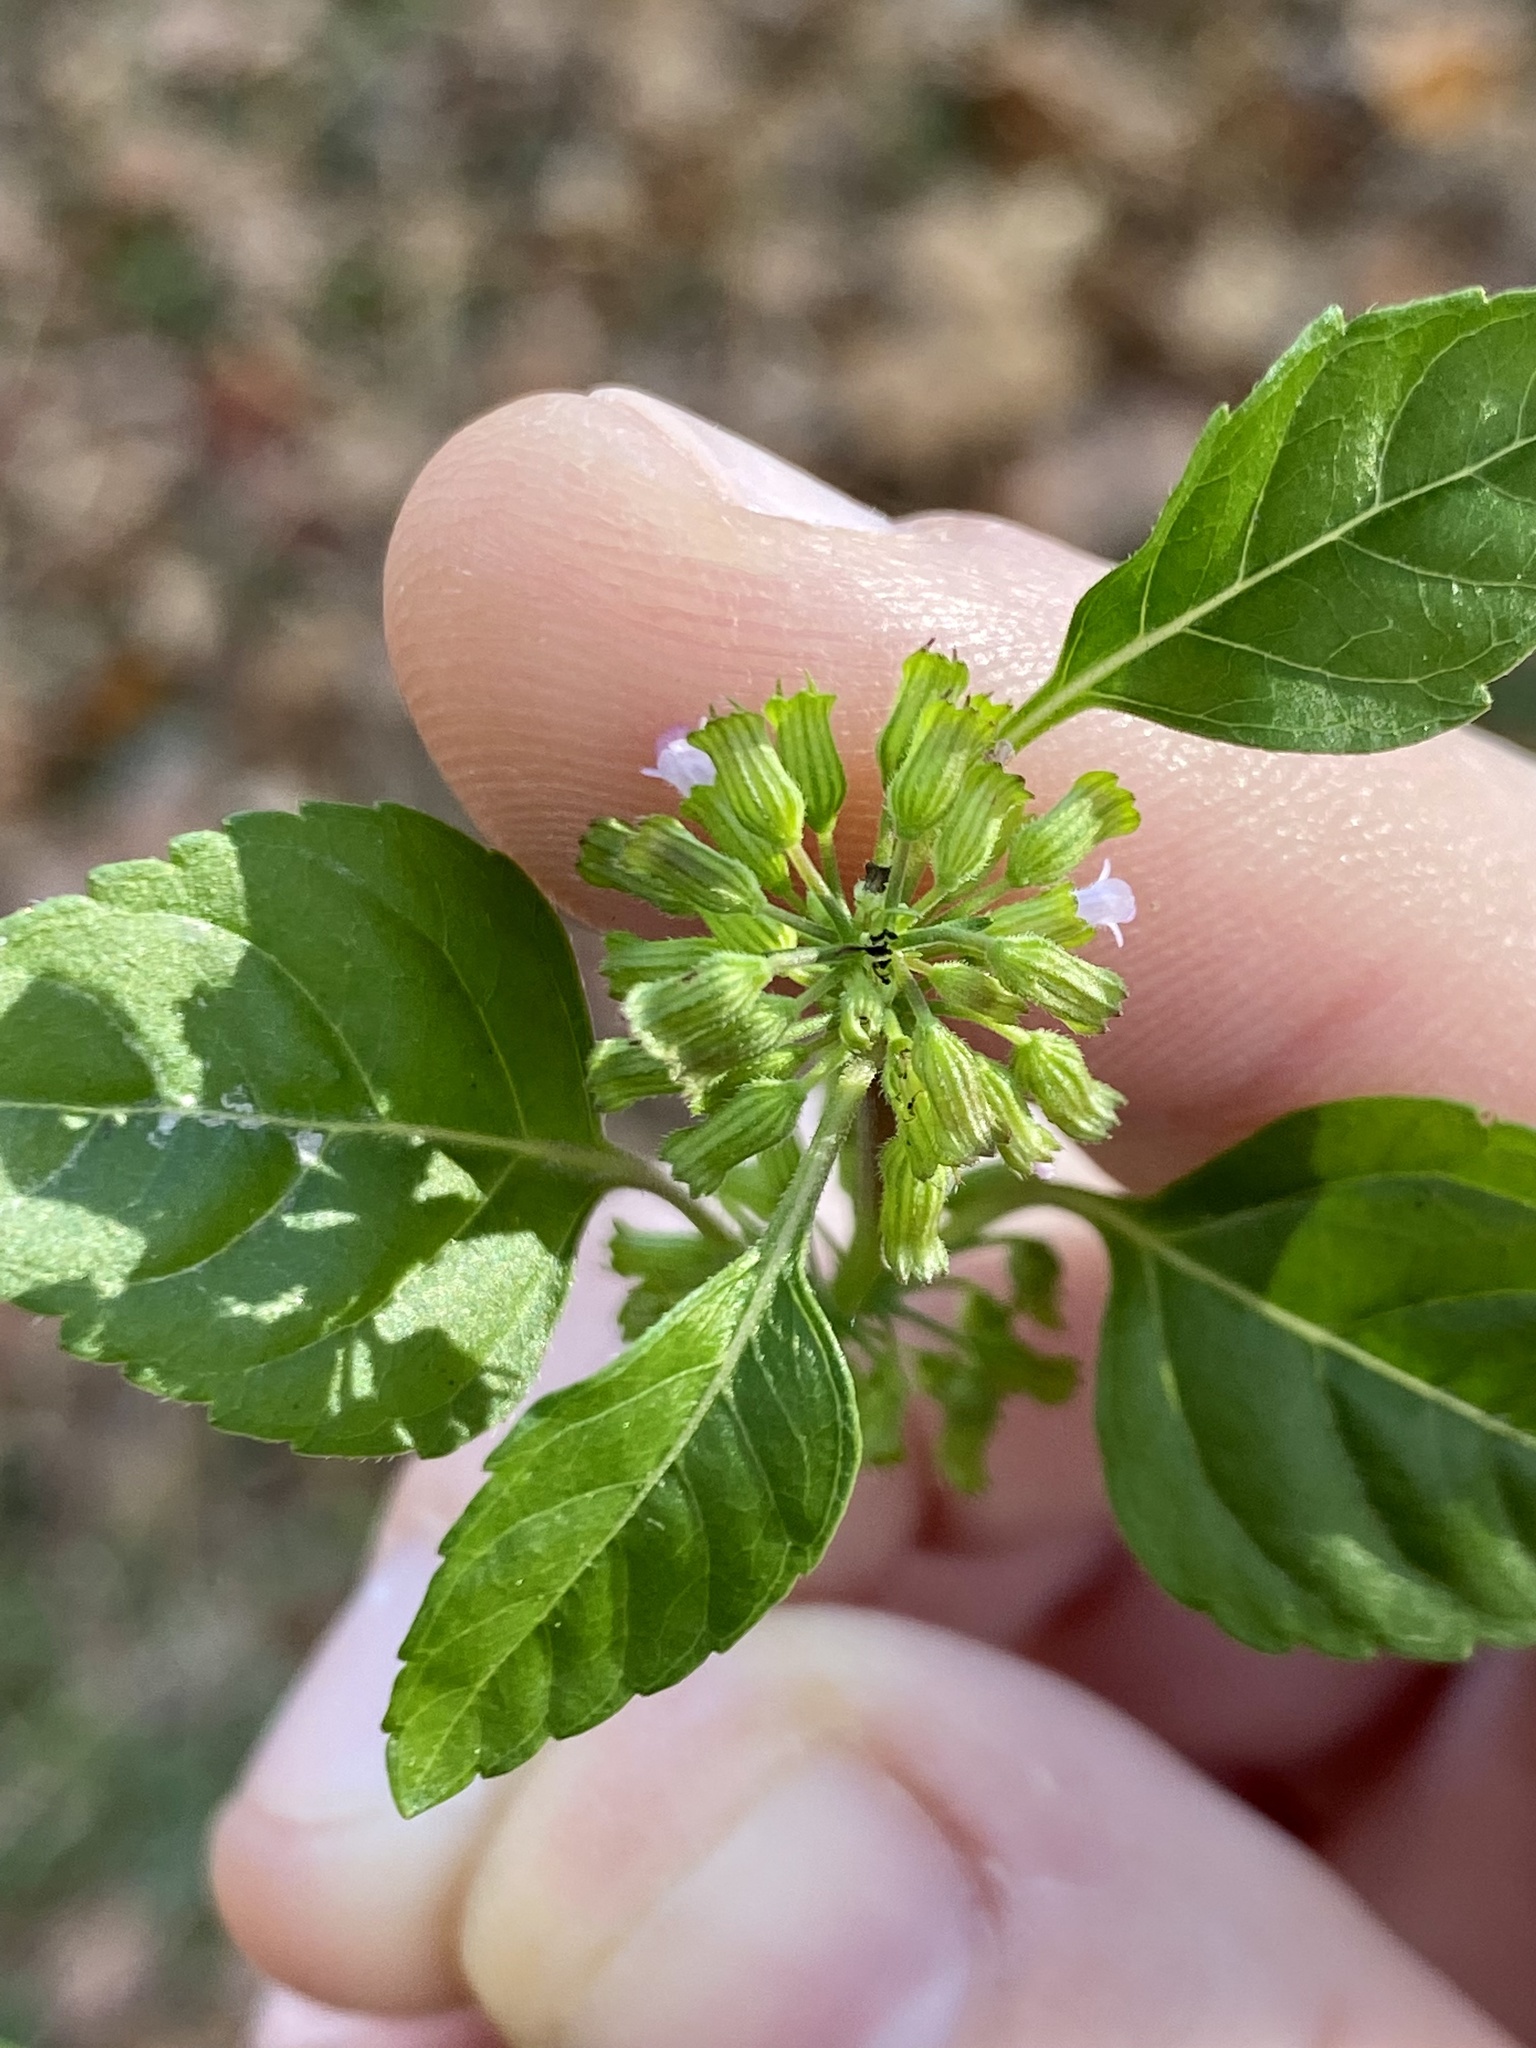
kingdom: Plantae
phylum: Tracheophyta
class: Magnoliopsida
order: Lamiales
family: Lamiaceae
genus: Clinopodium
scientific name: Clinopodium gracile
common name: Slender wild basil
